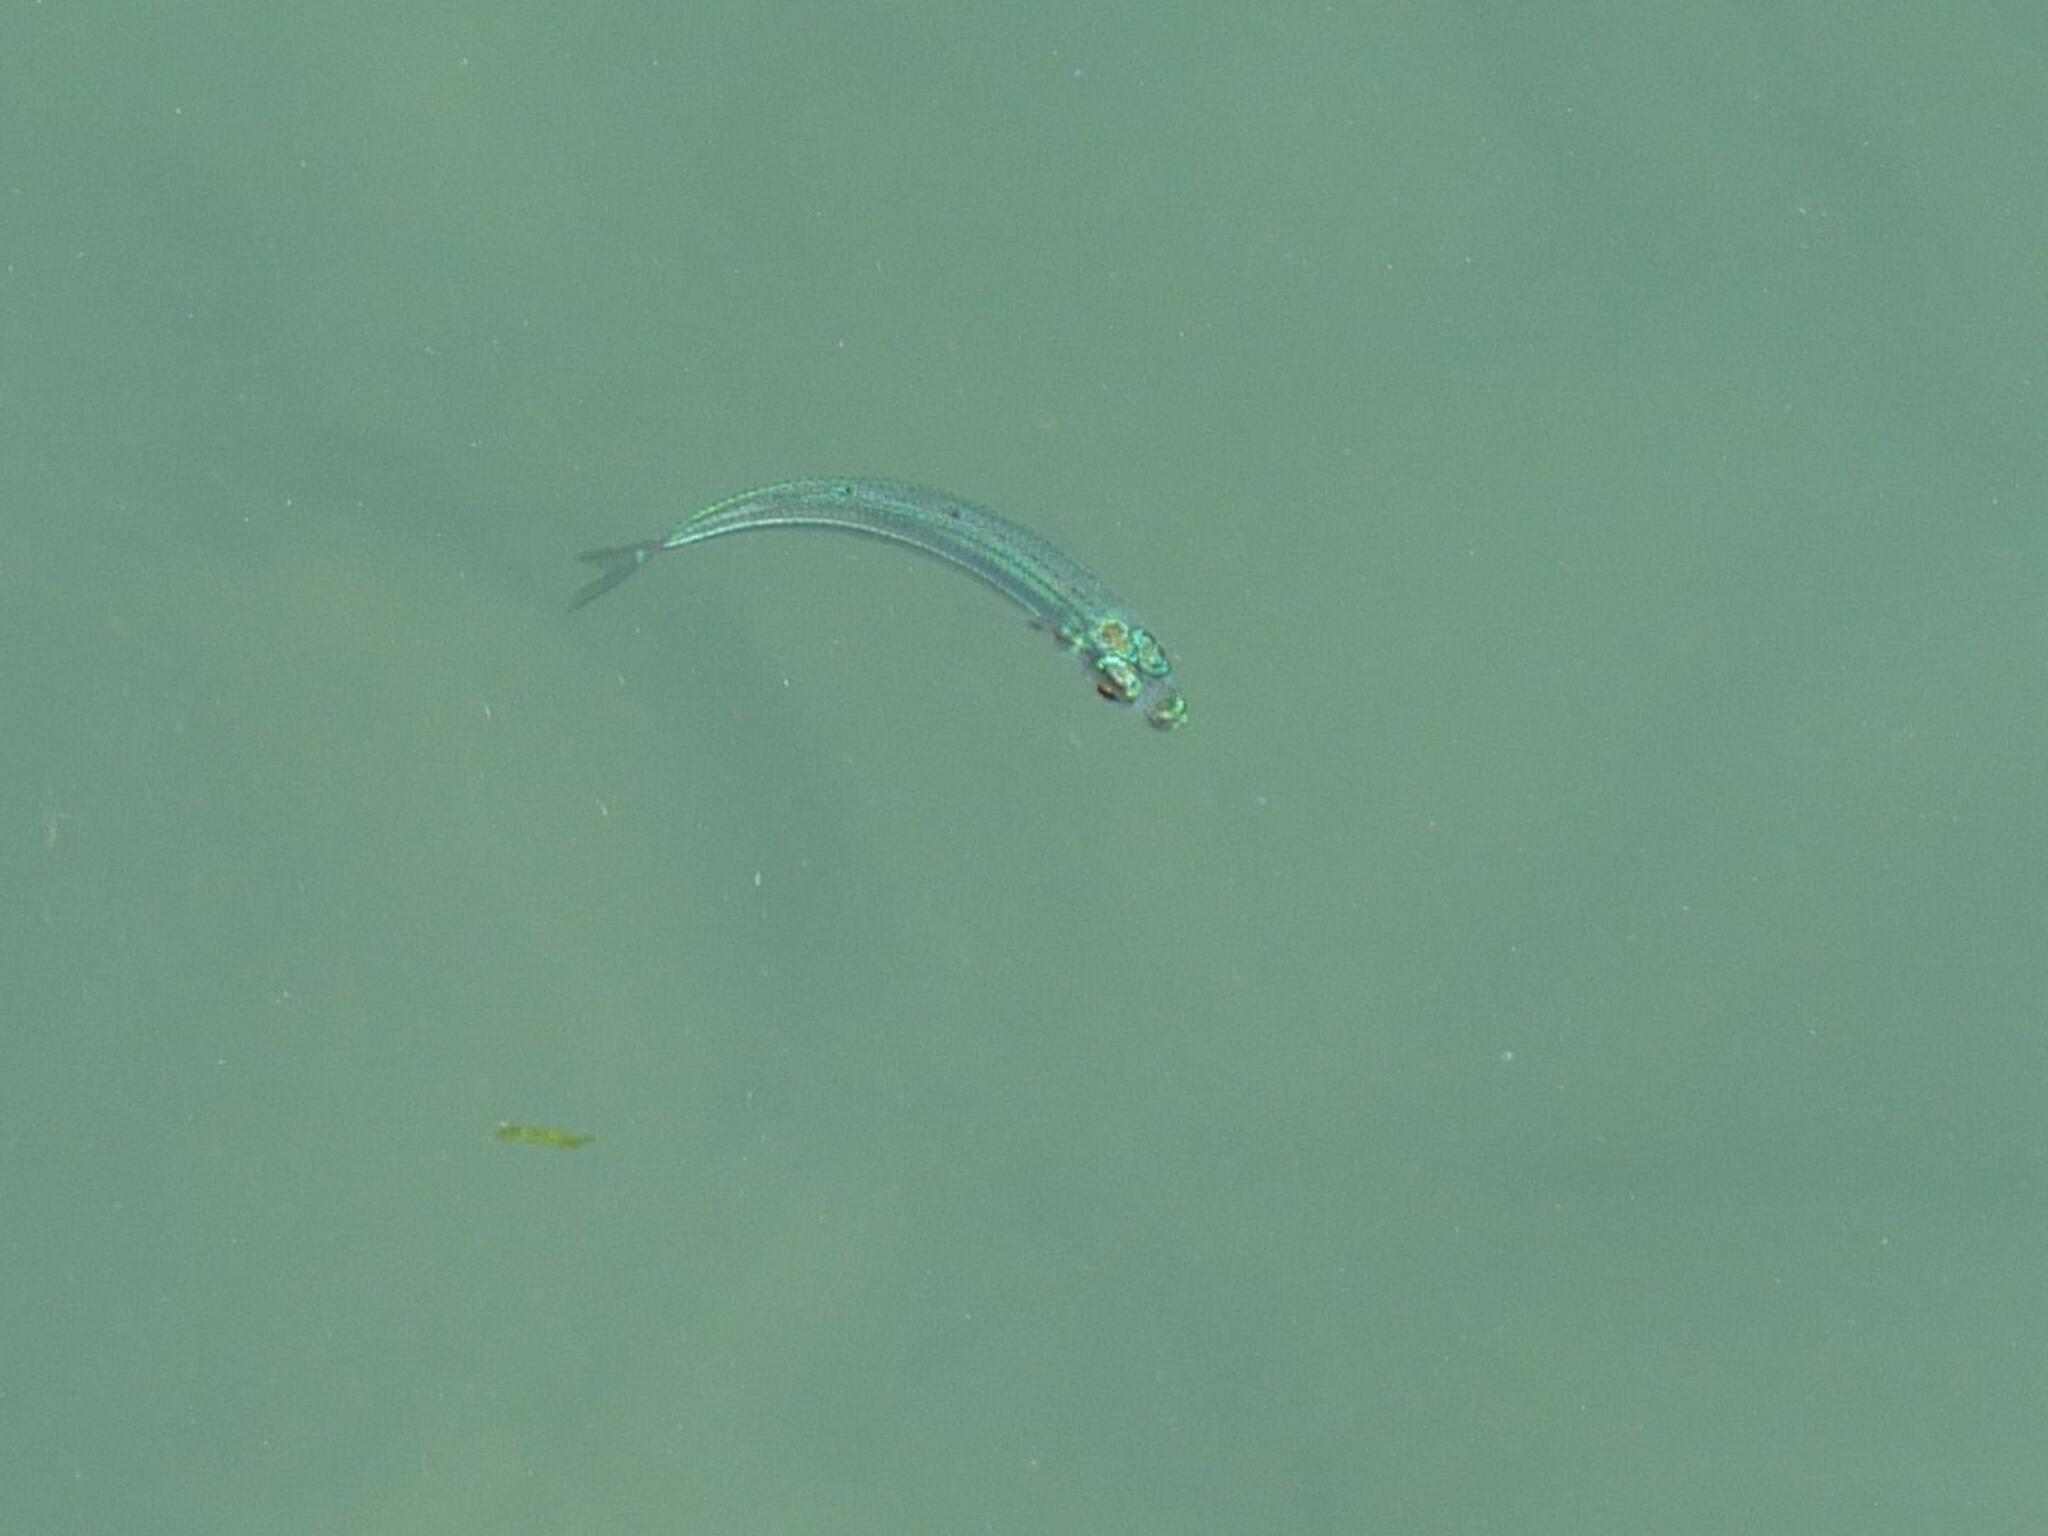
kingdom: Animalia
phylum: Chordata
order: Atheriniformes
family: Atherinidae
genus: Atherina
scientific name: Atherina boyeri
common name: Big-scale sand smelt
